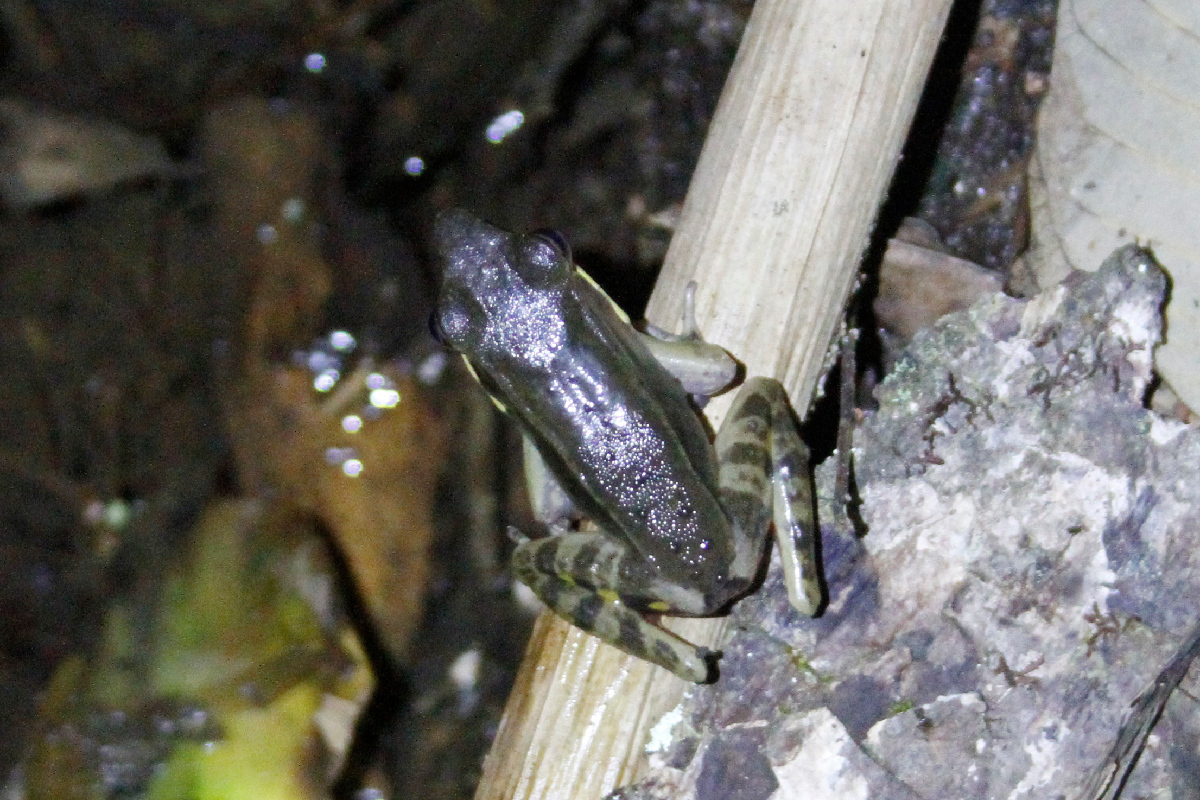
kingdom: Animalia
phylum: Chordata
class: Amphibia
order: Anura
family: Ranidae
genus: Lithobates
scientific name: Lithobates warszewitschii
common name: Warszewitsch's frog
